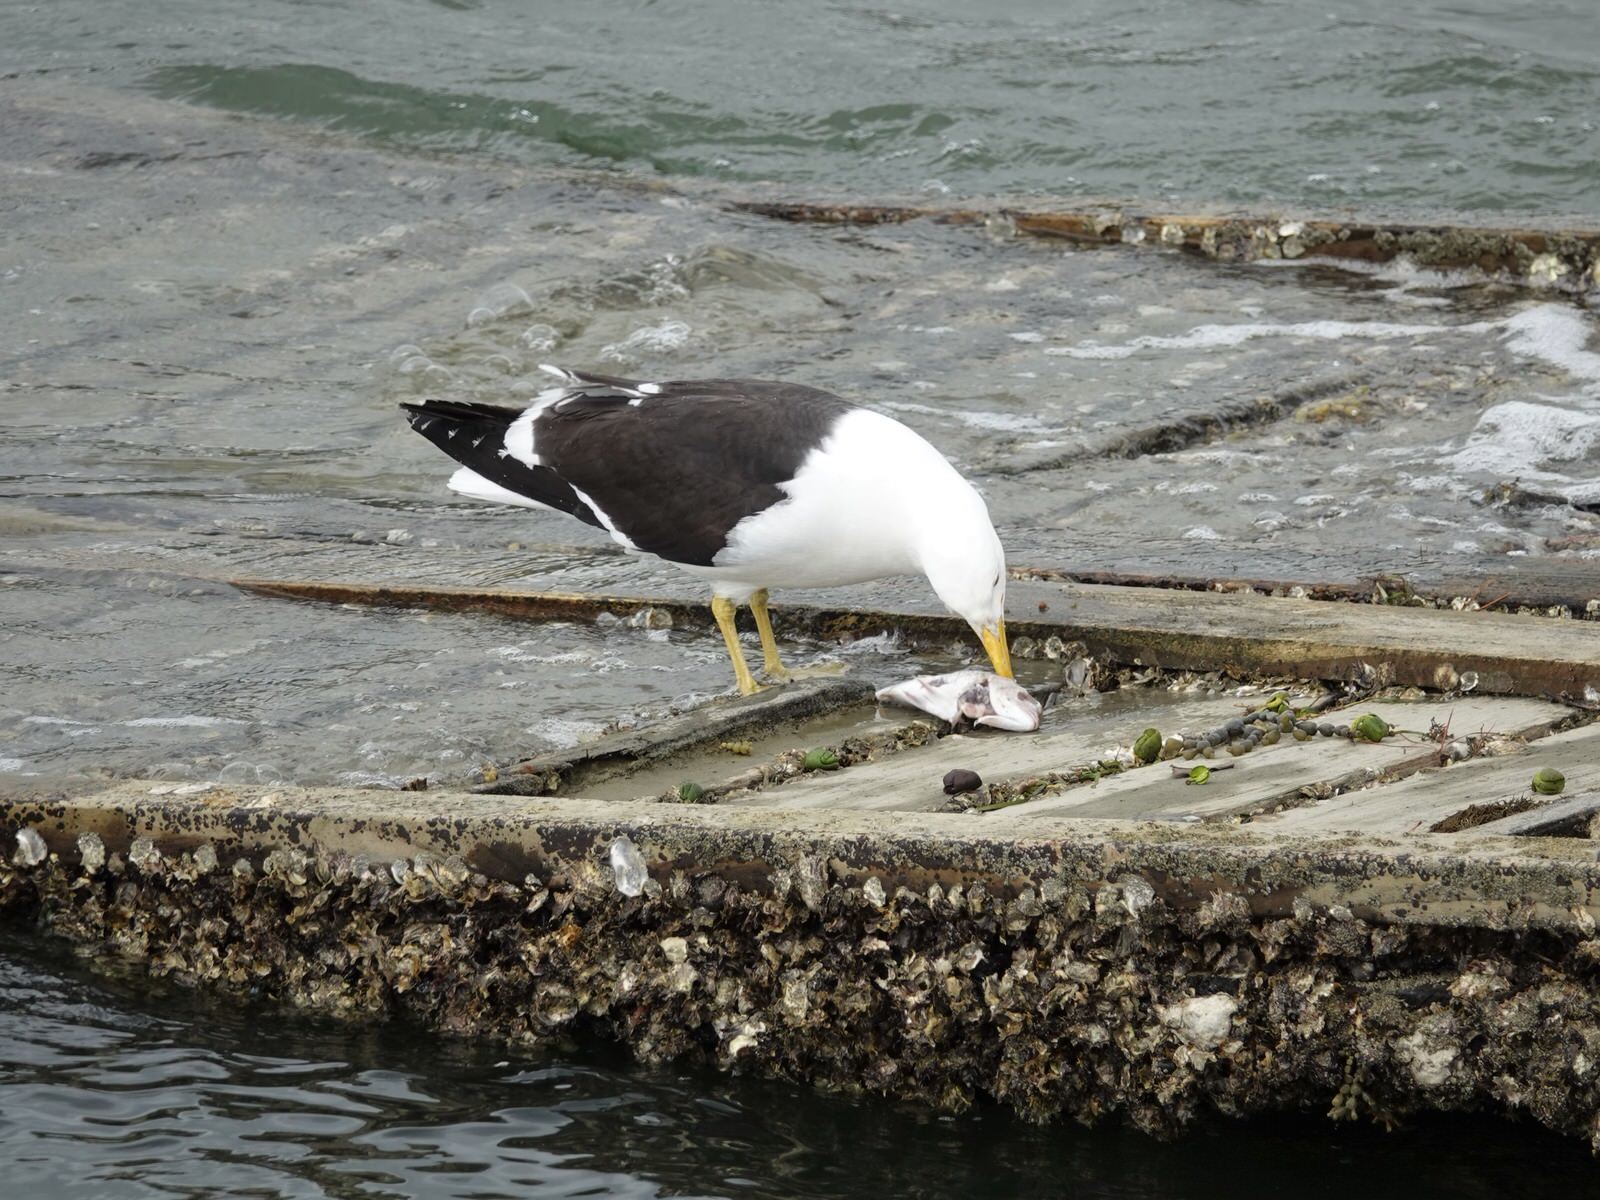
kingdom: Animalia
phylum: Chordata
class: Aves
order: Charadriiformes
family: Laridae
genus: Larus
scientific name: Larus dominicanus
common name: Kelp gull
